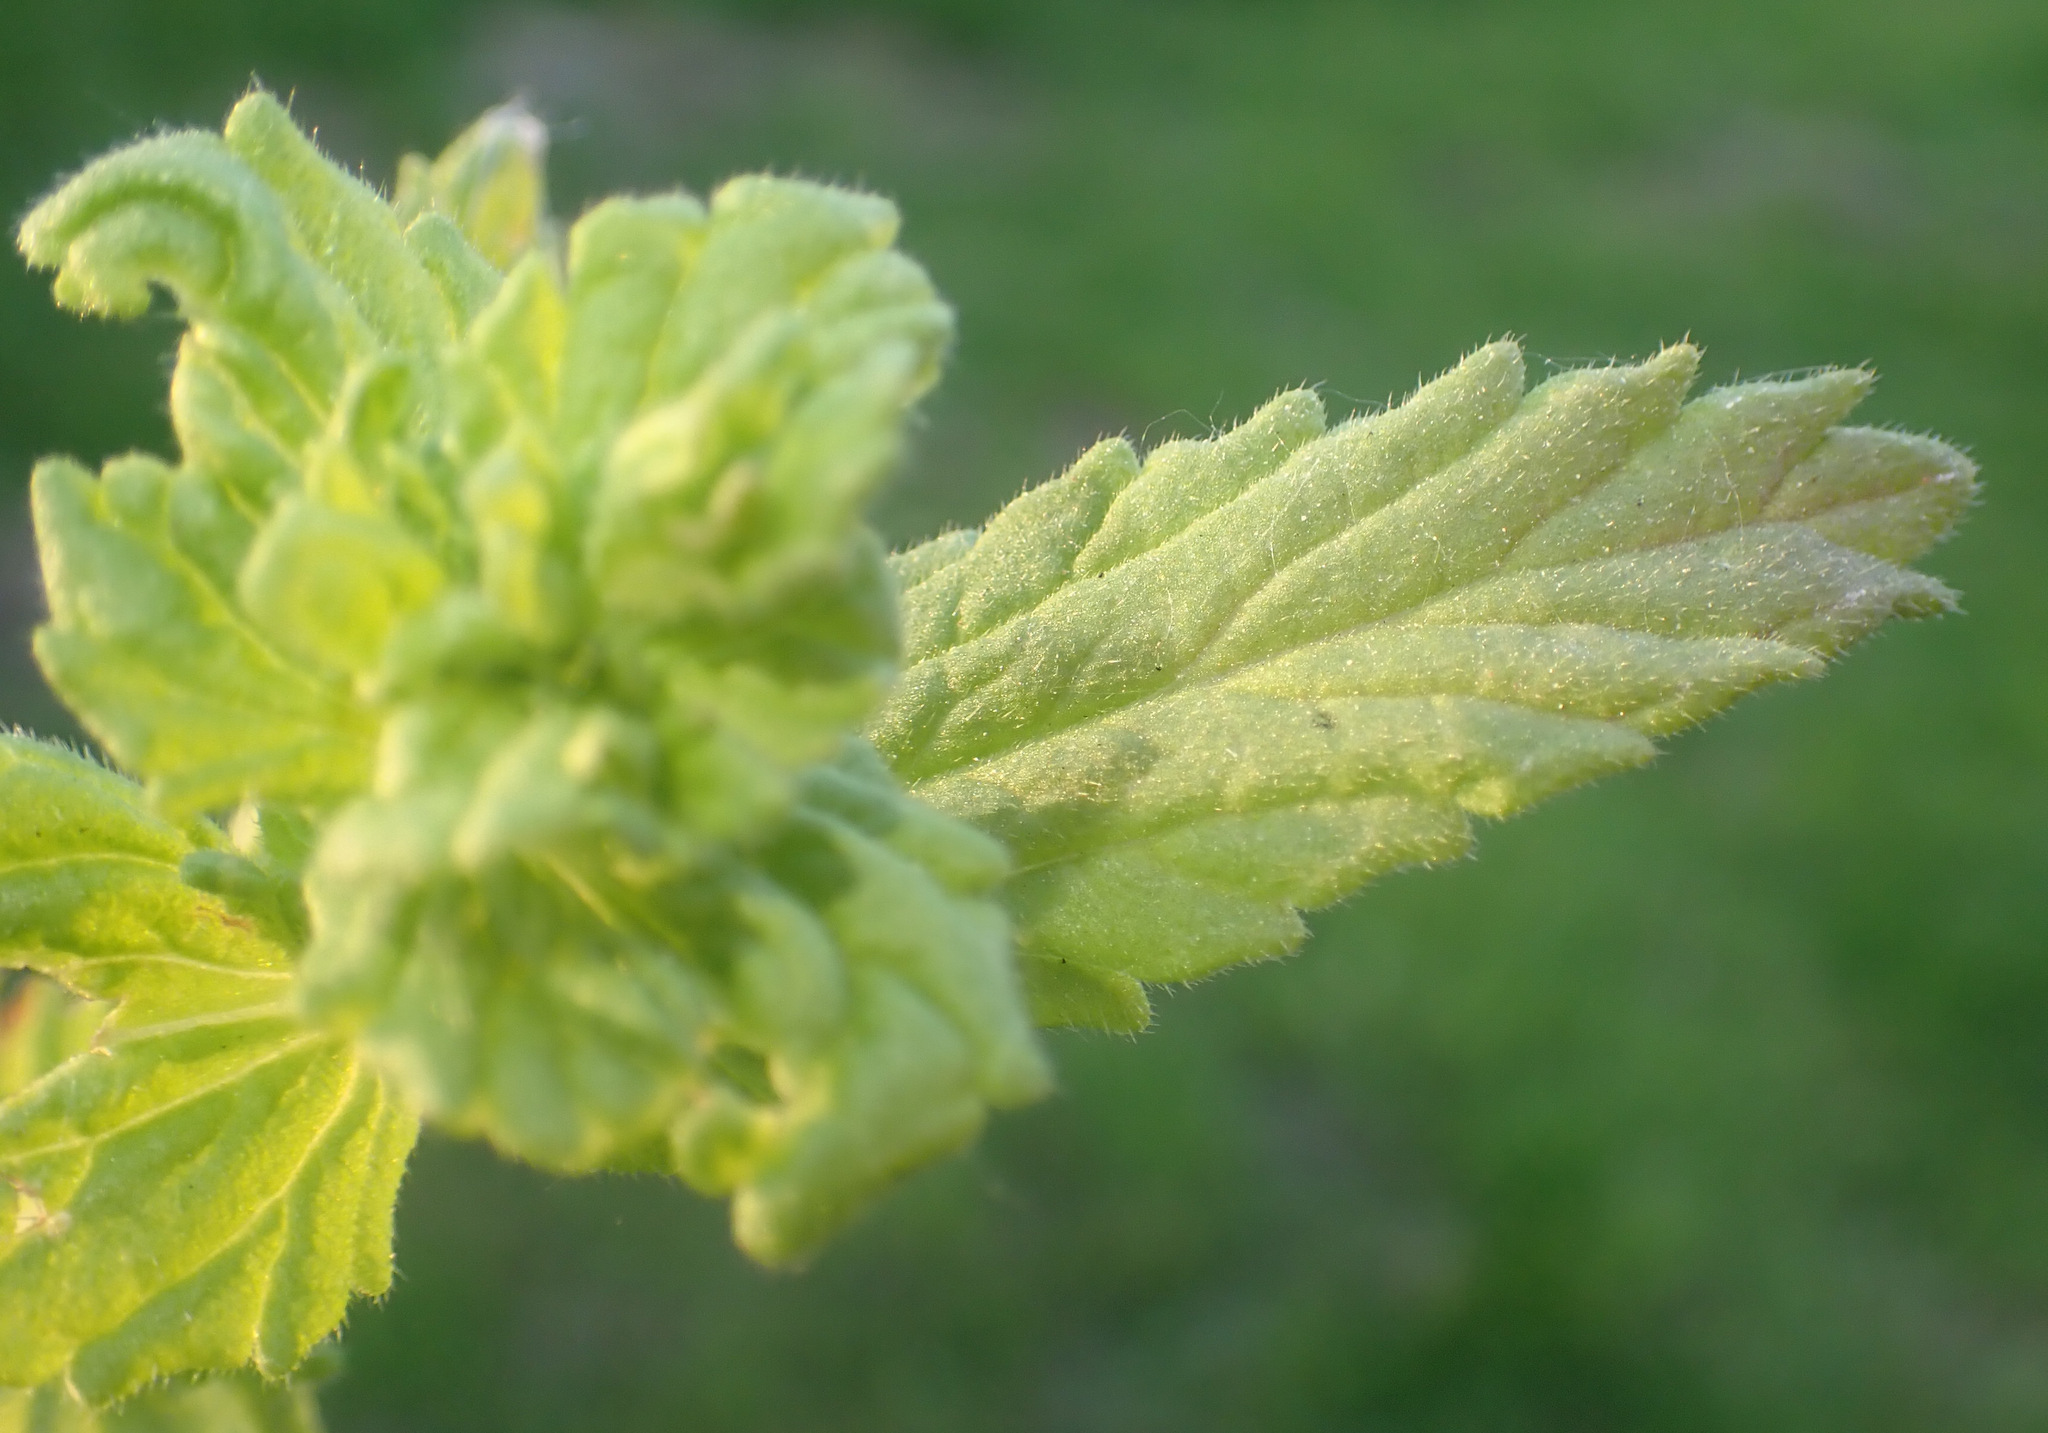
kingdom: Plantae
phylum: Tracheophyta
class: Magnoliopsida
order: Lamiales
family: Orobanchaceae
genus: Bellardia
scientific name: Bellardia viscosa
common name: Sticky parentucellia
